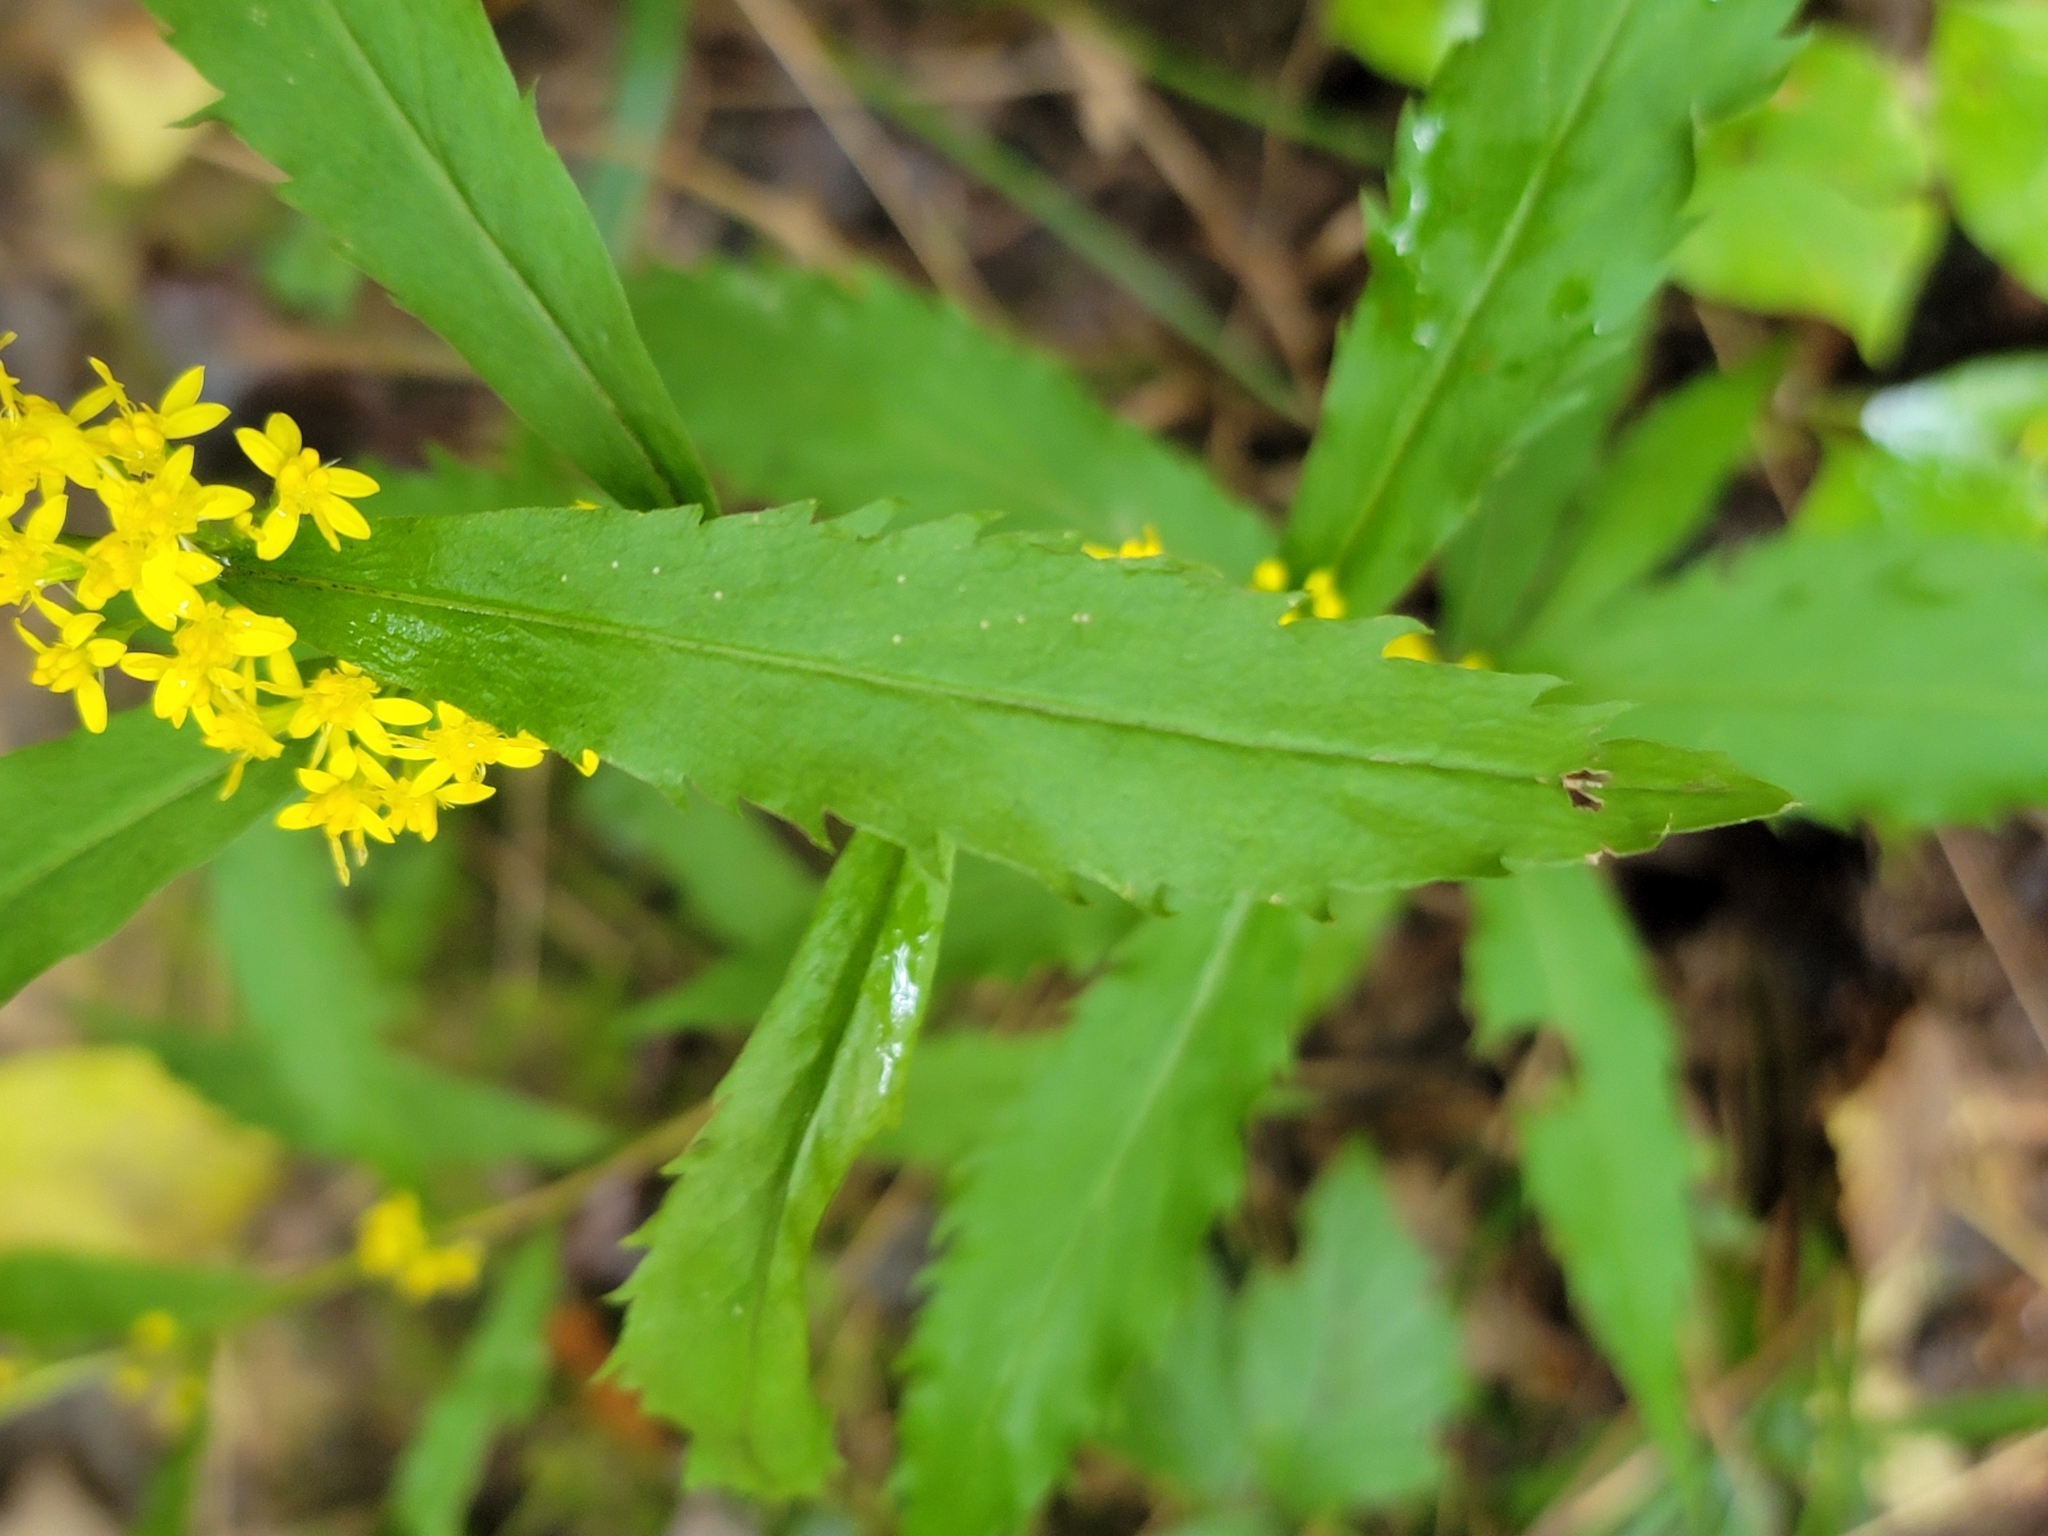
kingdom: Plantae
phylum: Tracheophyta
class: Magnoliopsida
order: Asterales
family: Asteraceae
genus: Solidago
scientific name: Solidago caesia
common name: Woodland goldenrod
